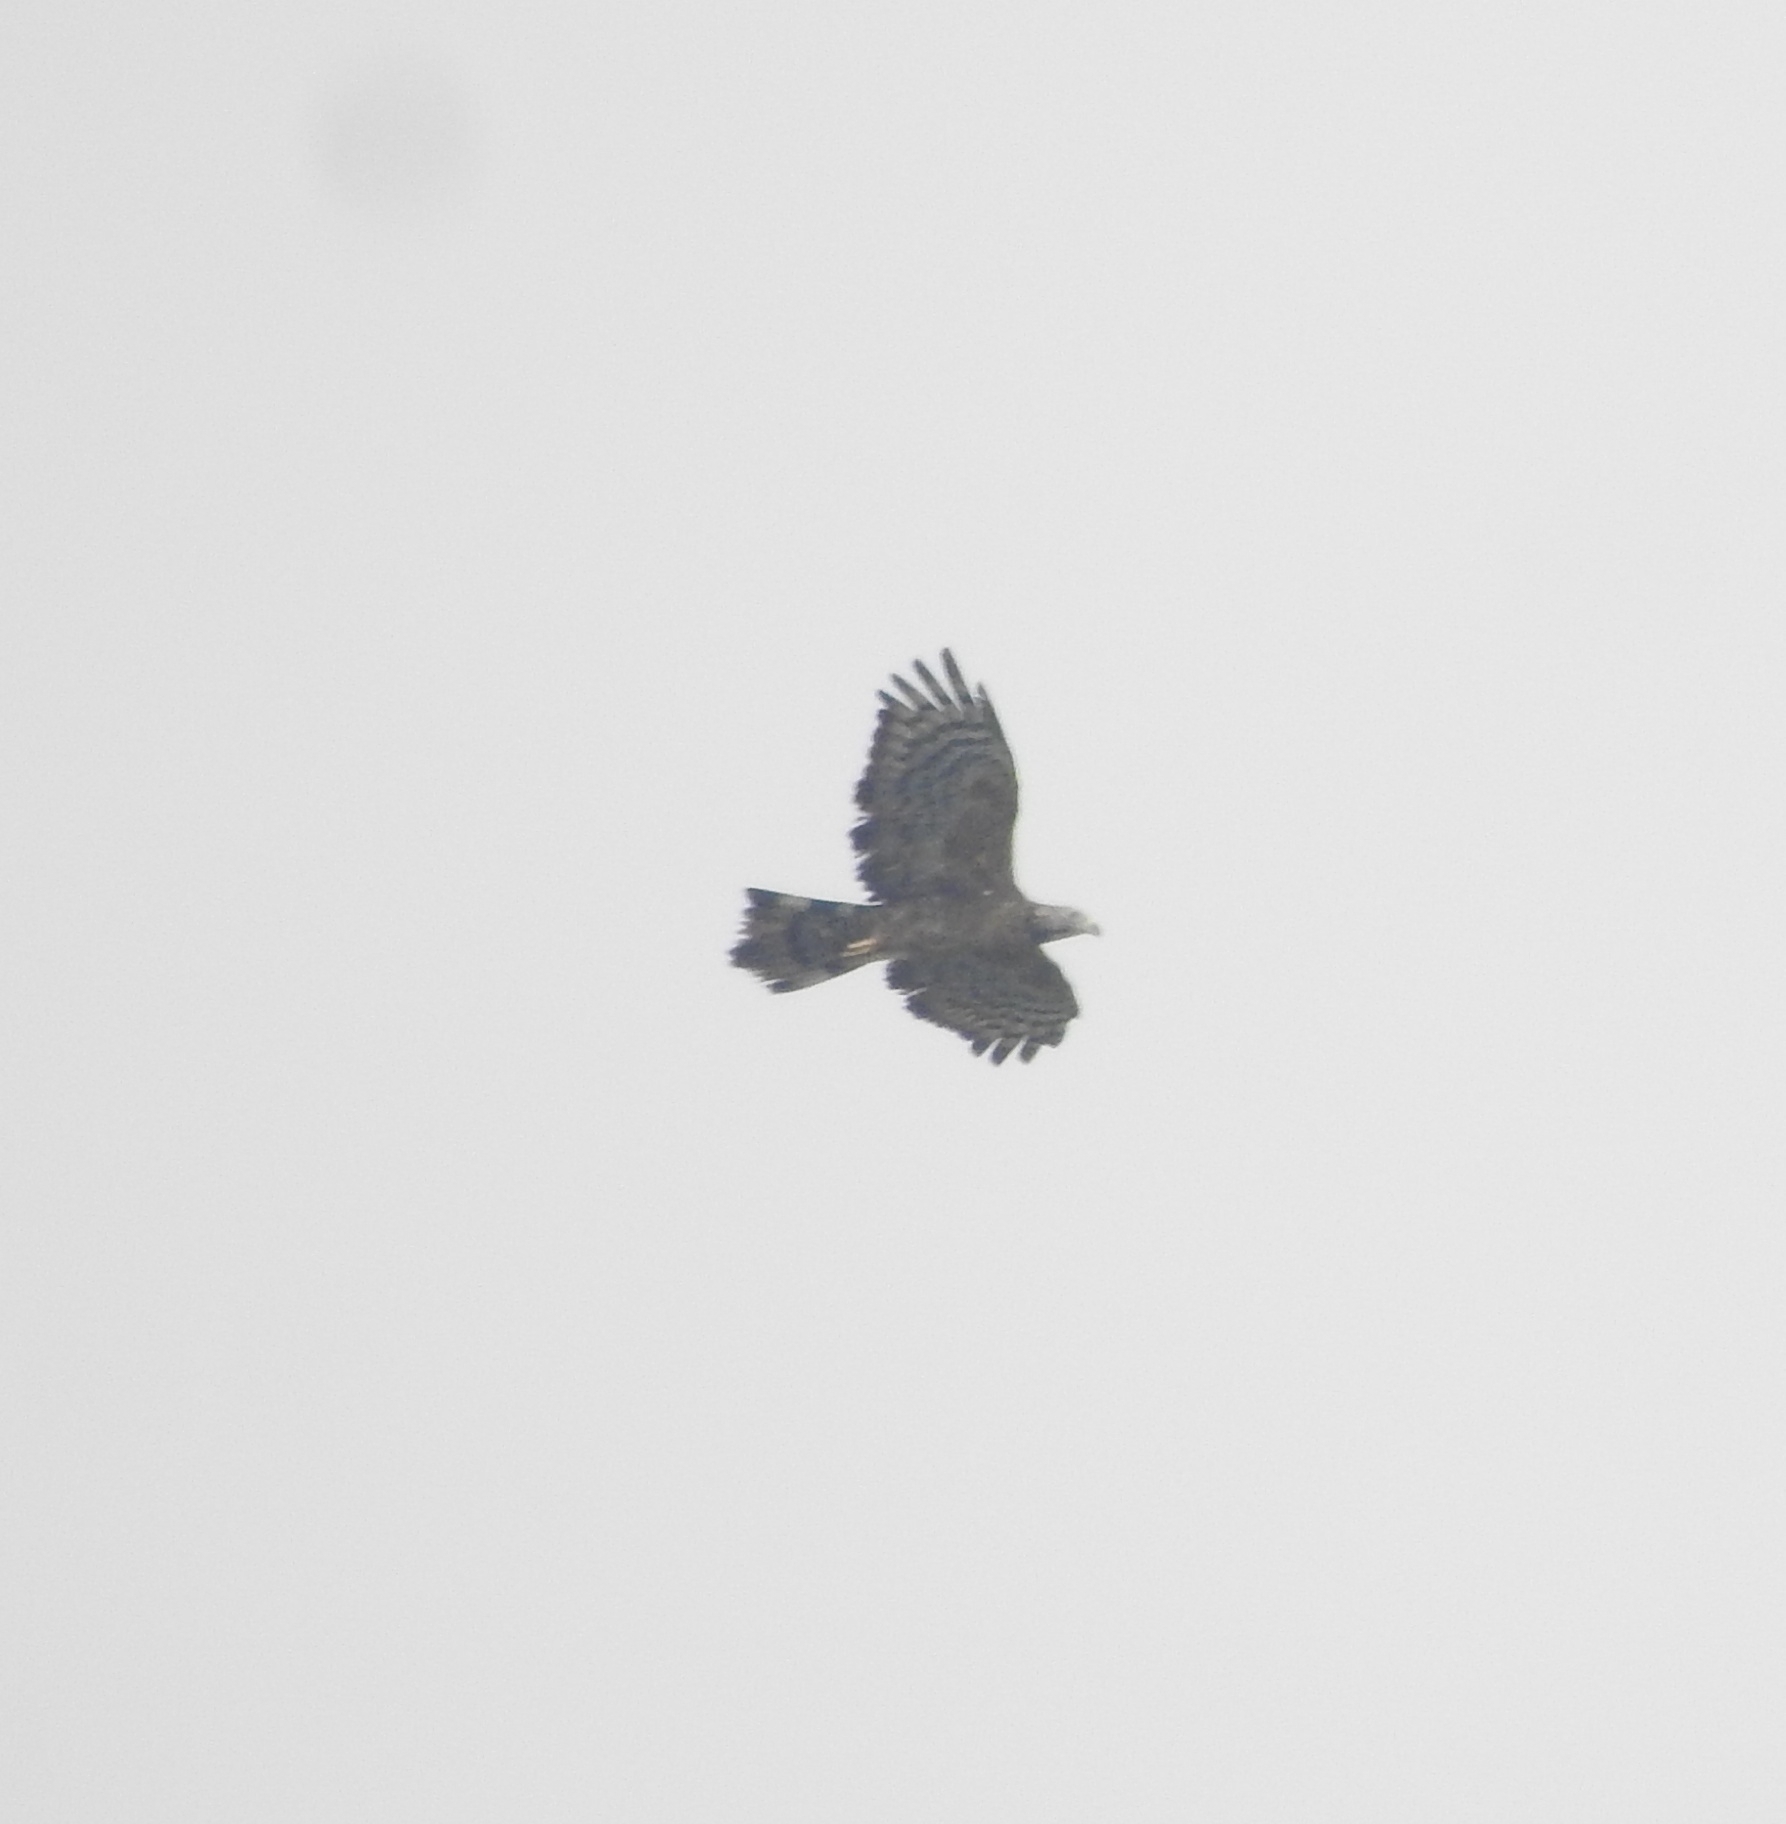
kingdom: Animalia
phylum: Chordata
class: Aves
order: Accipitriformes
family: Accipitridae
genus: Pernis
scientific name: Pernis ptilorhynchus
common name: Crested honey buzzard
